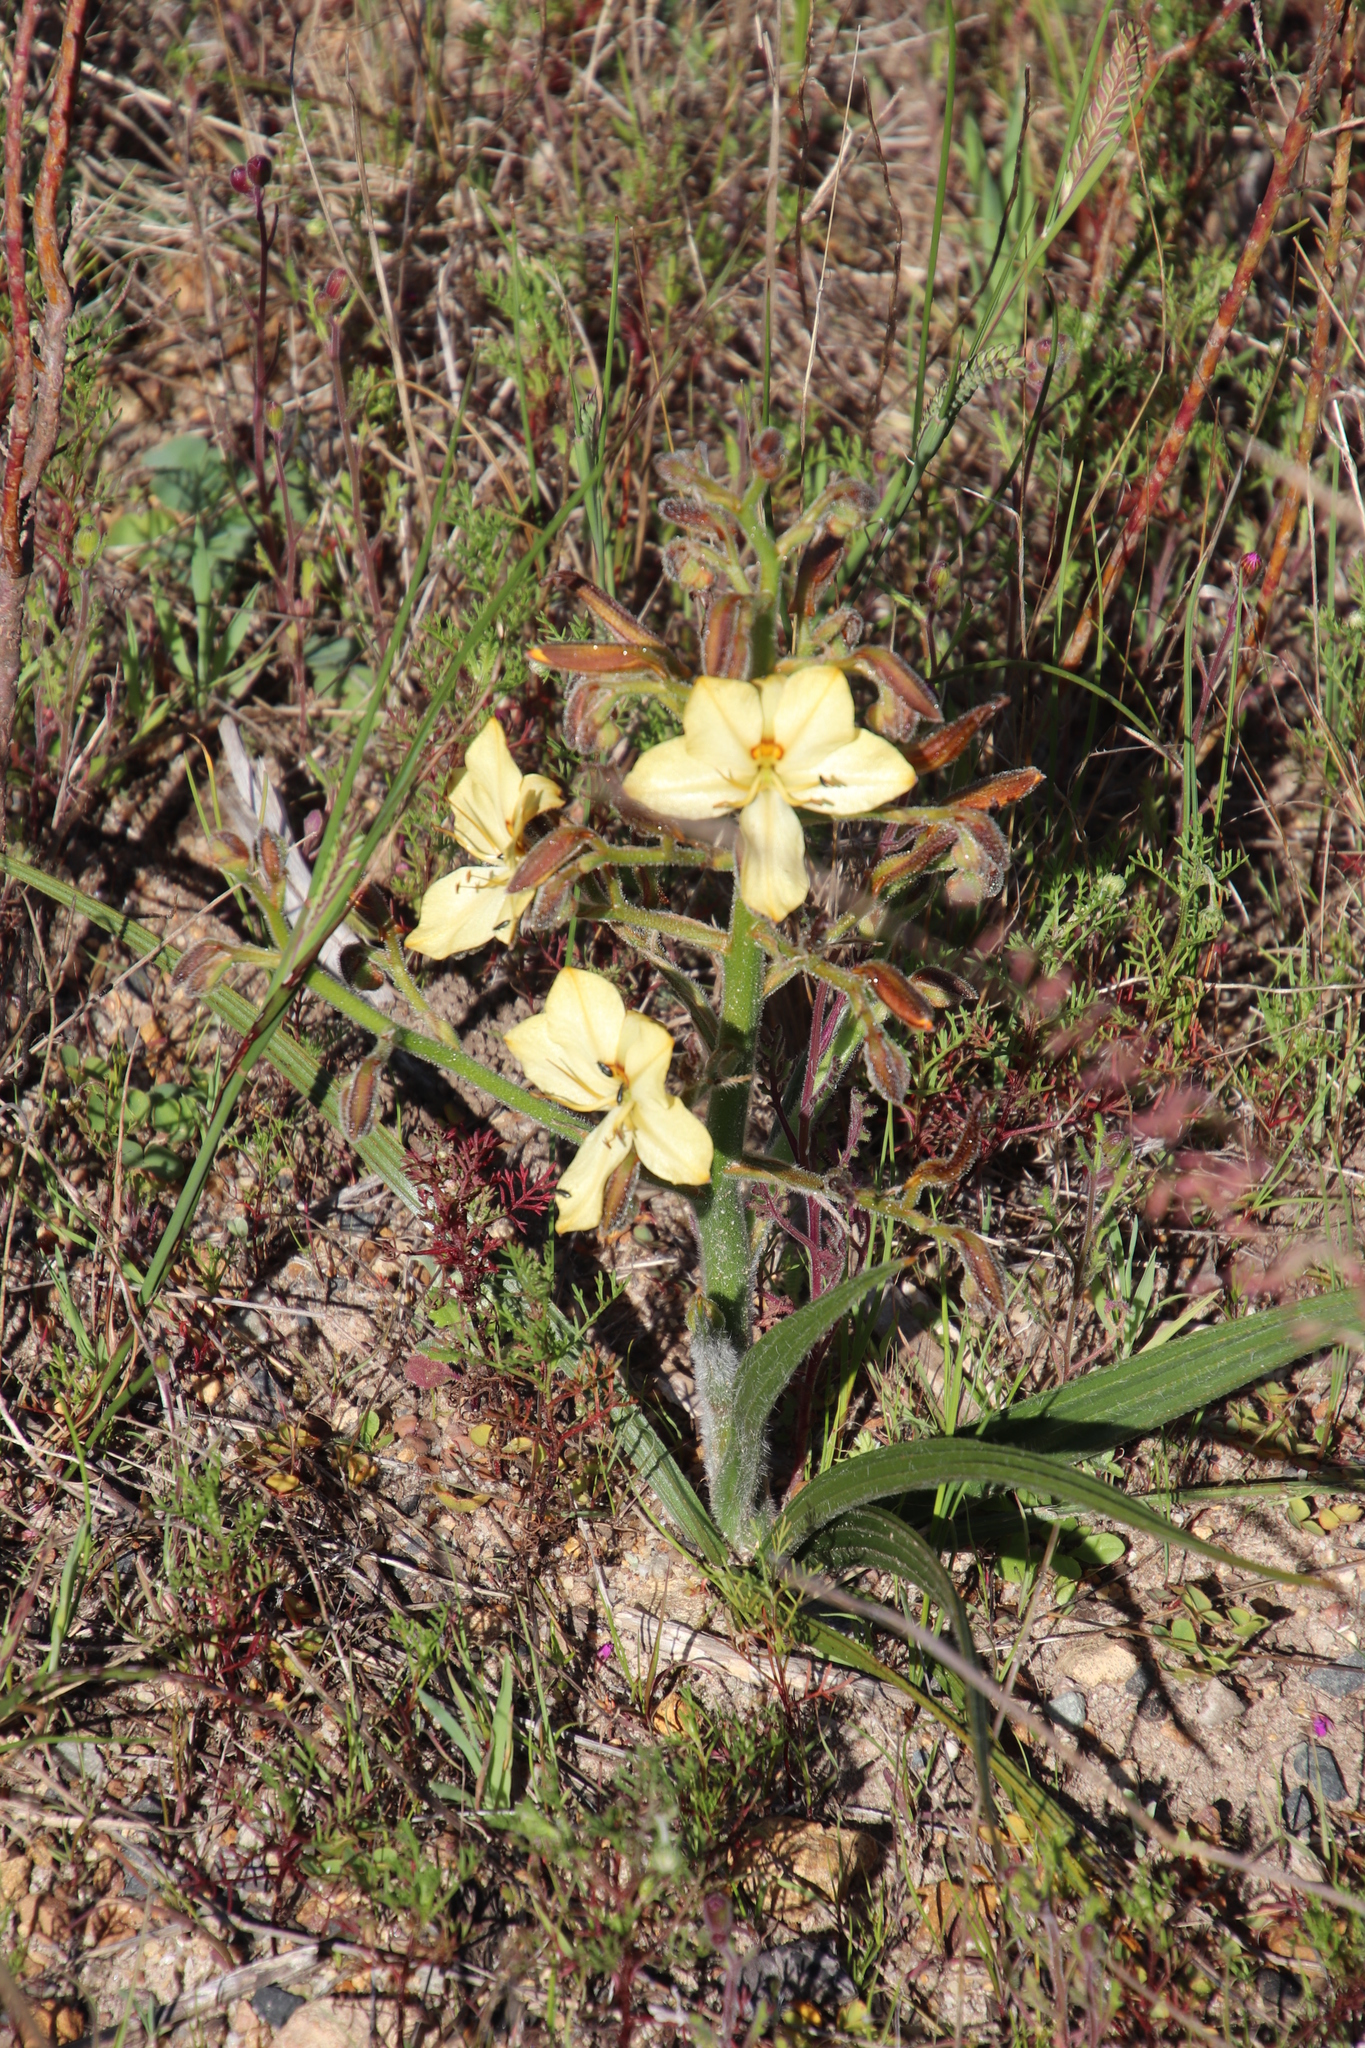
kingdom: Plantae
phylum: Tracheophyta
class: Liliopsida
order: Commelinales
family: Haemodoraceae
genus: Wachendorfia
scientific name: Wachendorfia paniculata
